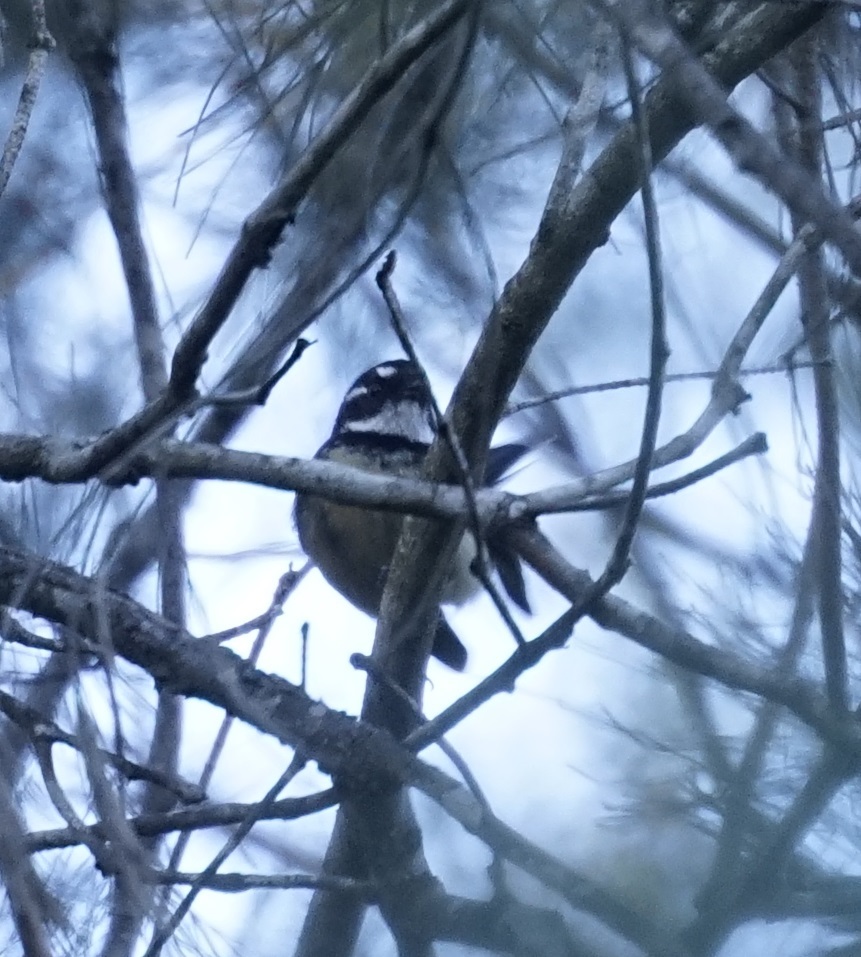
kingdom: Animalia
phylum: Chordata
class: Aves
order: Passeriformes
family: Rhipiduridae
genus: Rhipidura
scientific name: Rhipidura albiscapa
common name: Grey fantail
